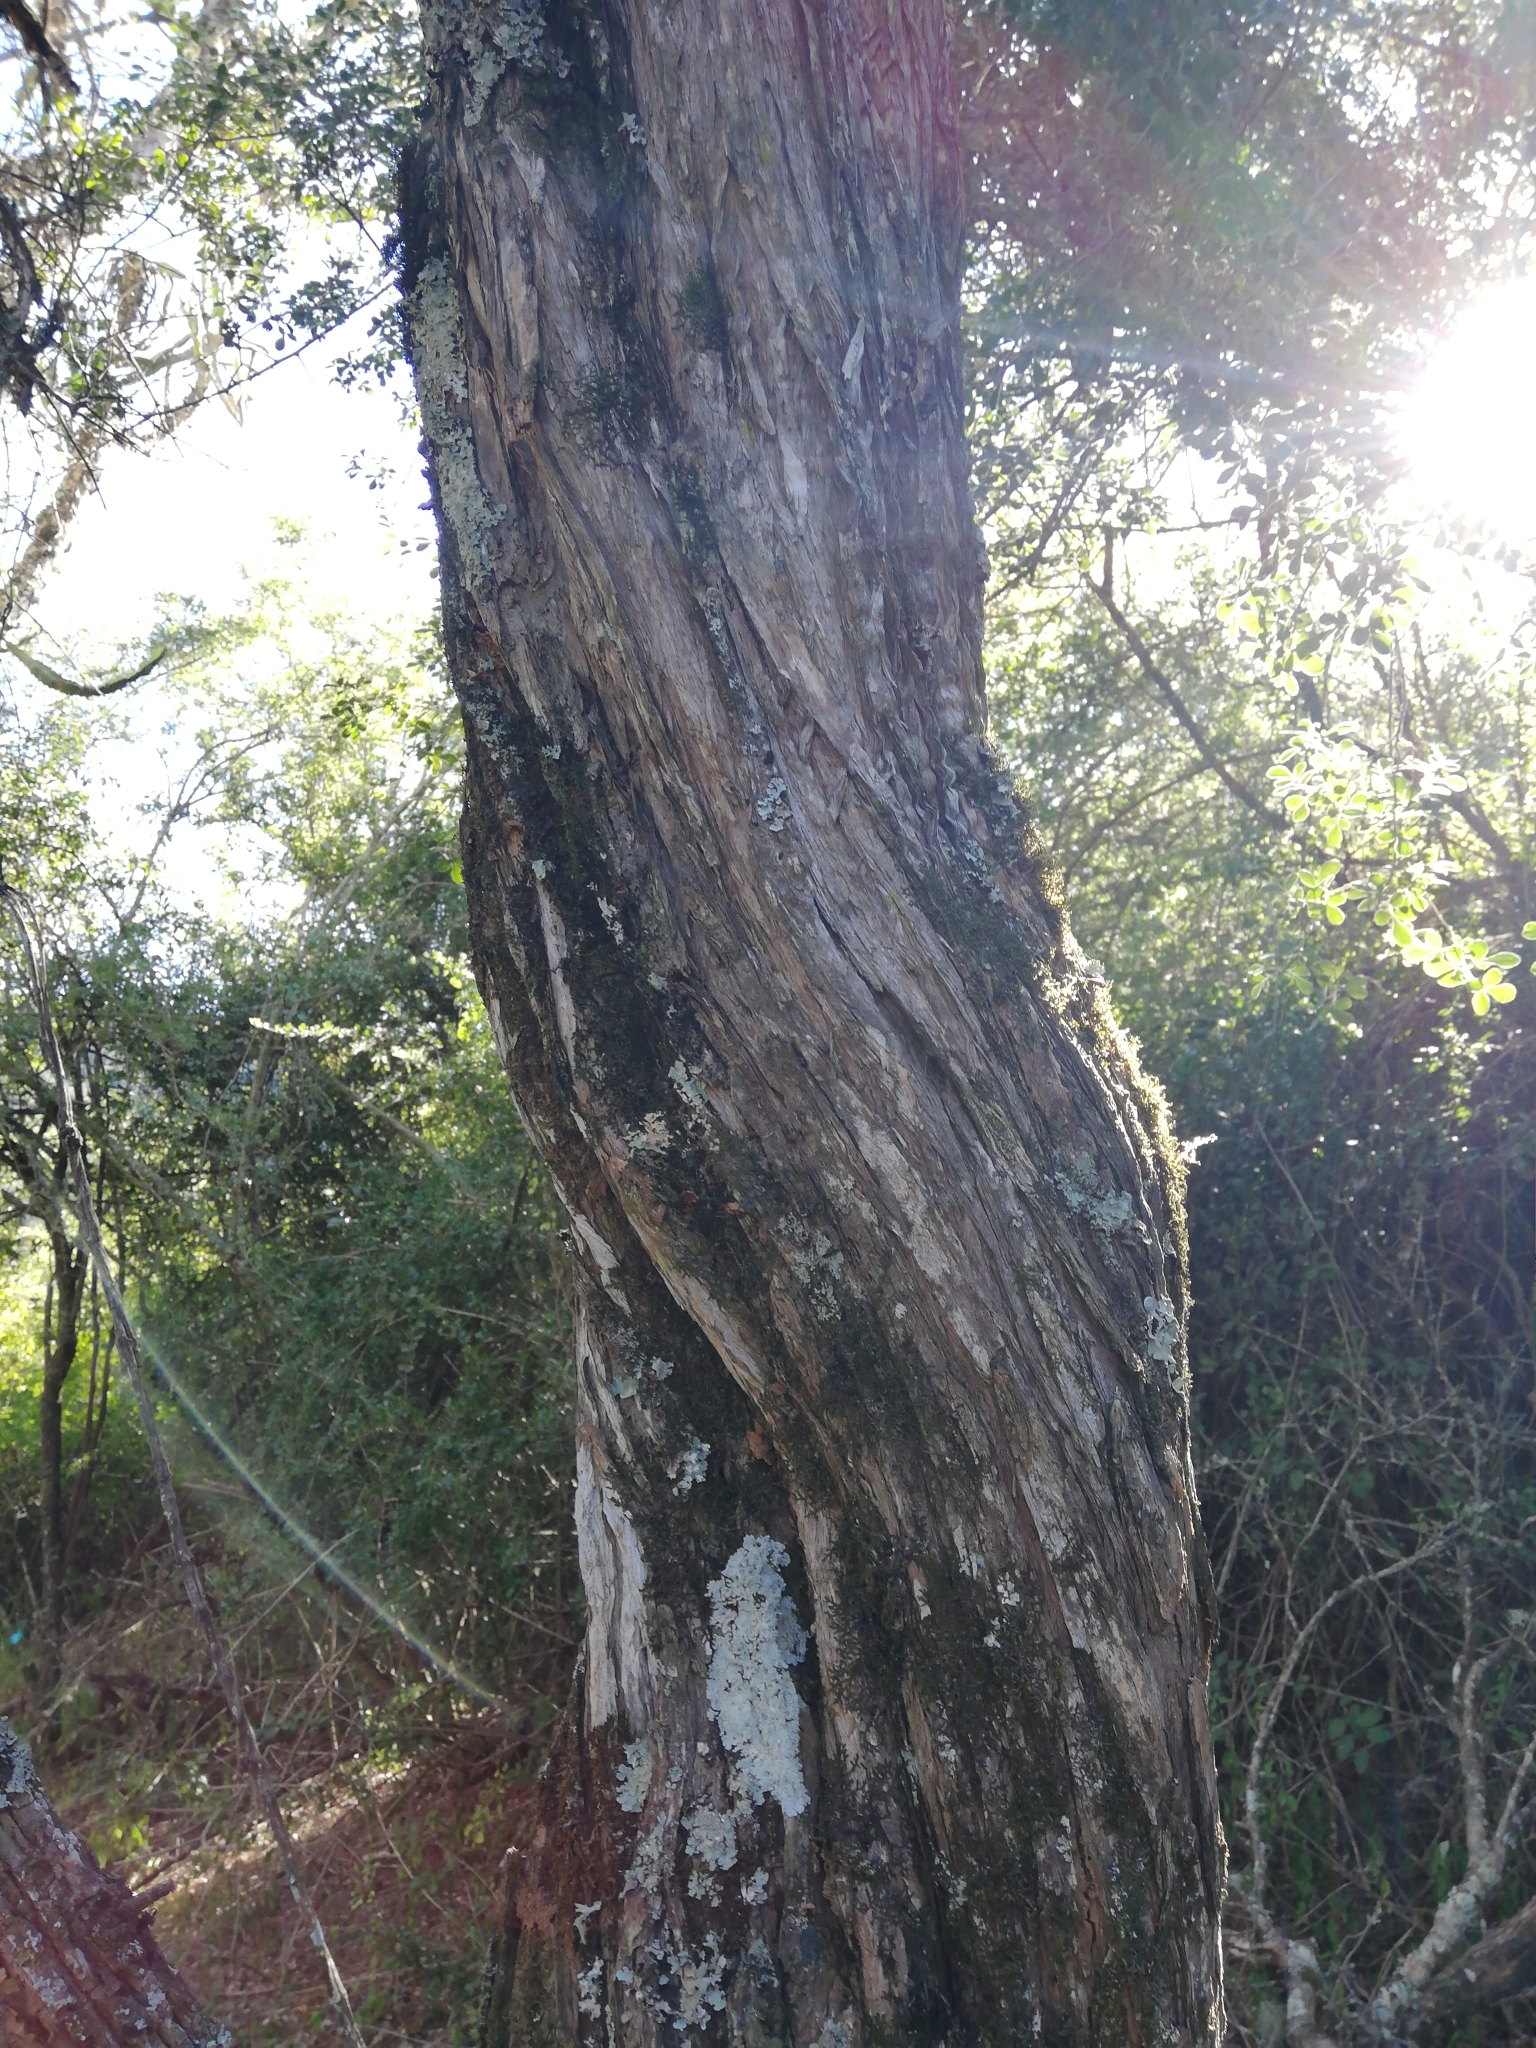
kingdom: Plantae
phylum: Tracheophyta
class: Magnoliopsida
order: Lamiales
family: Scrophulariaceae
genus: Buddleja
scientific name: Buddleja saligna
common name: False olive
